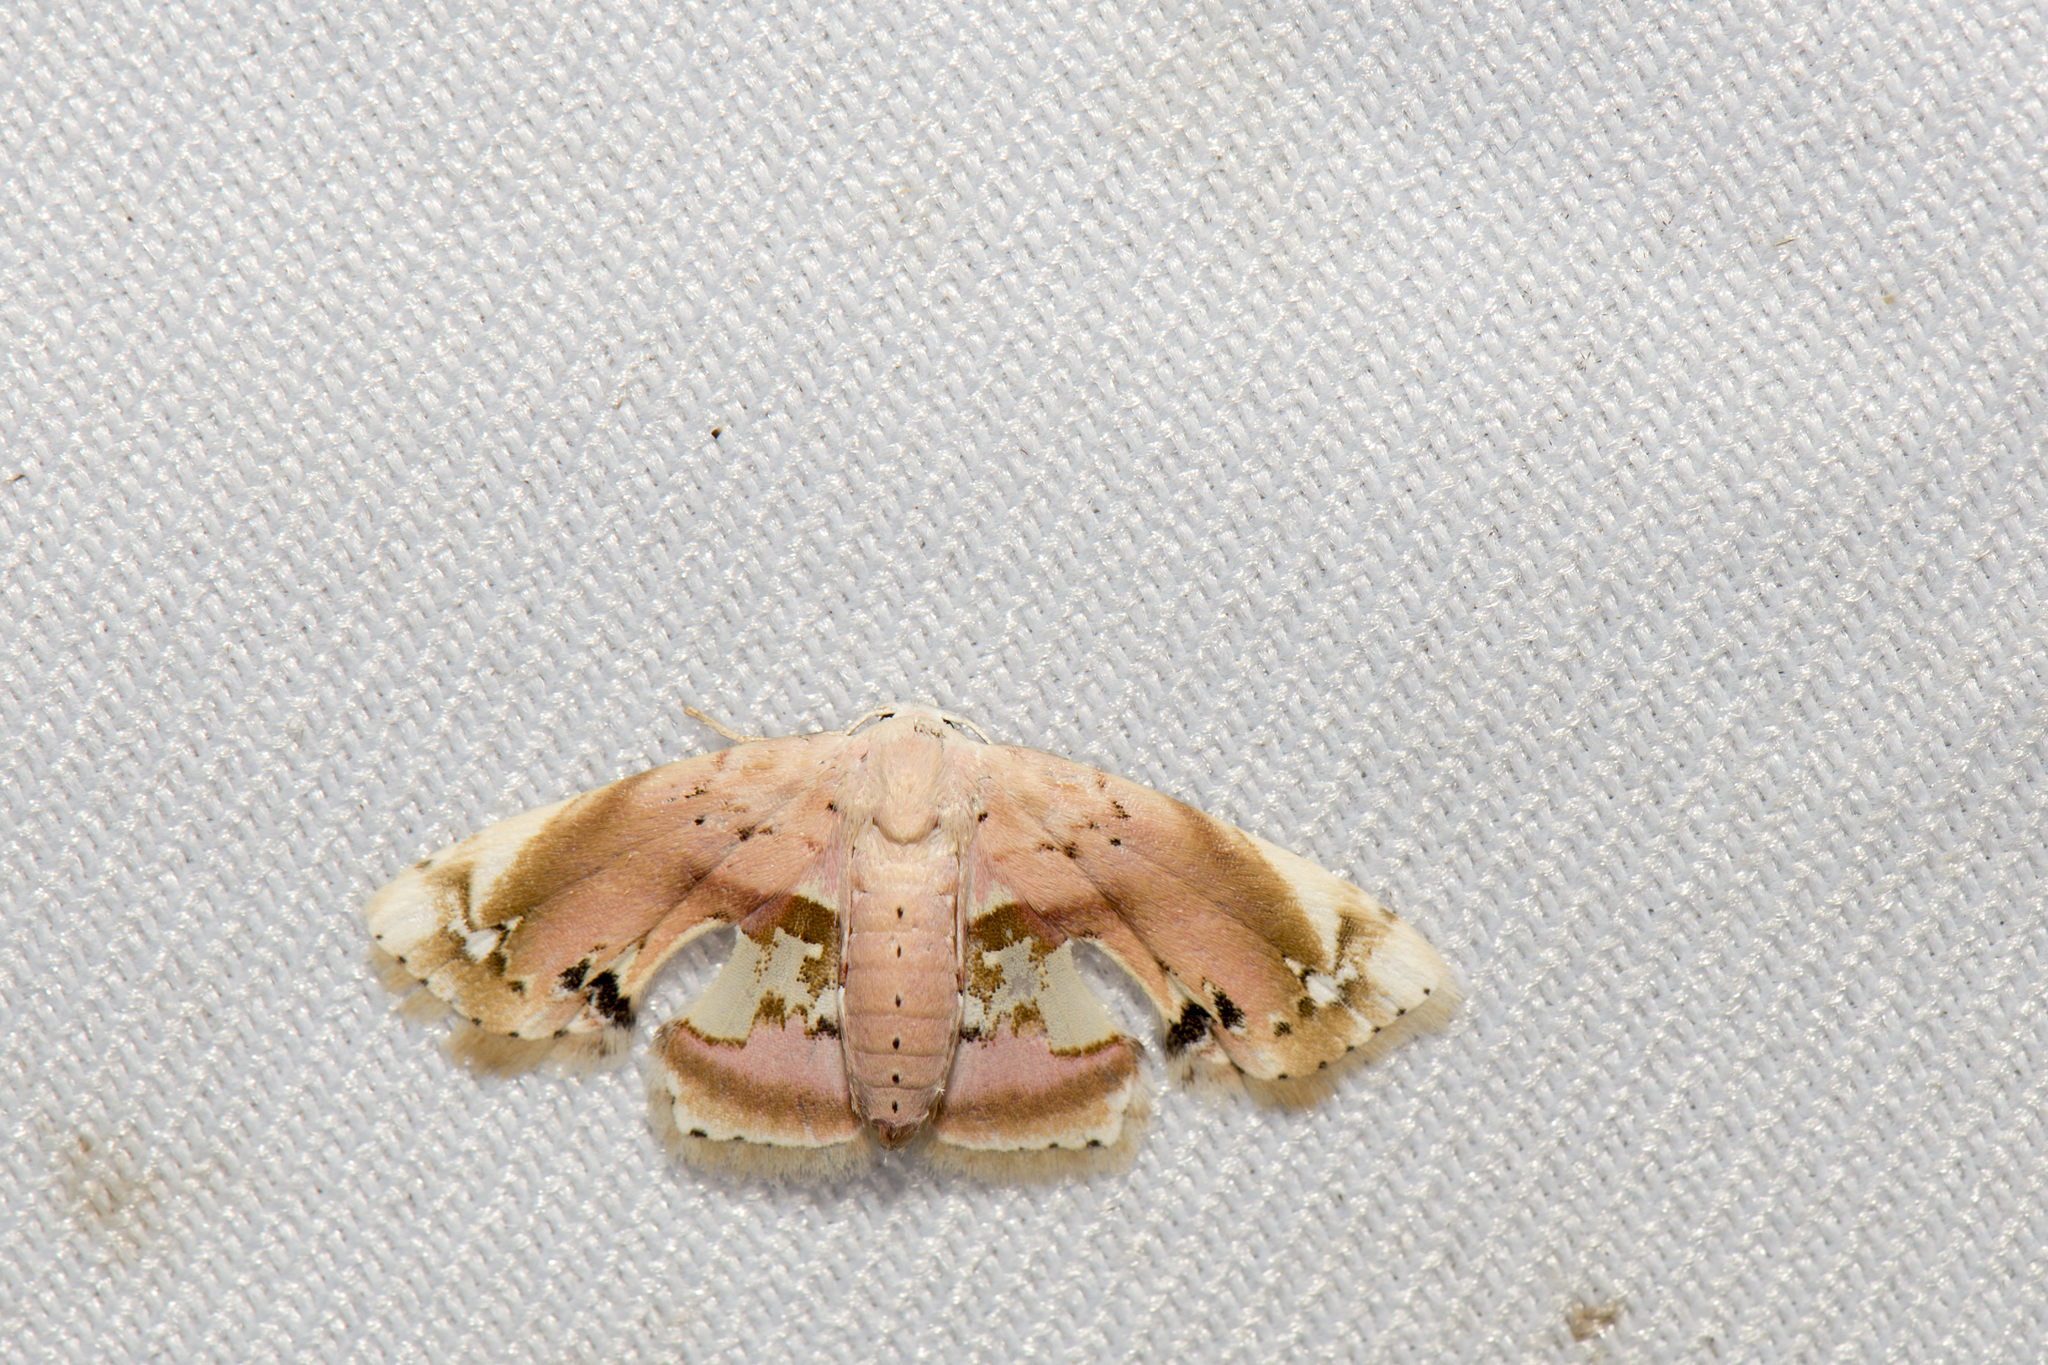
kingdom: Animalia
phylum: Arthropoda
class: Insecta
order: Lepidoptera
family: Noctuidae
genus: Holocryptis
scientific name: Holocryptis erubescens
